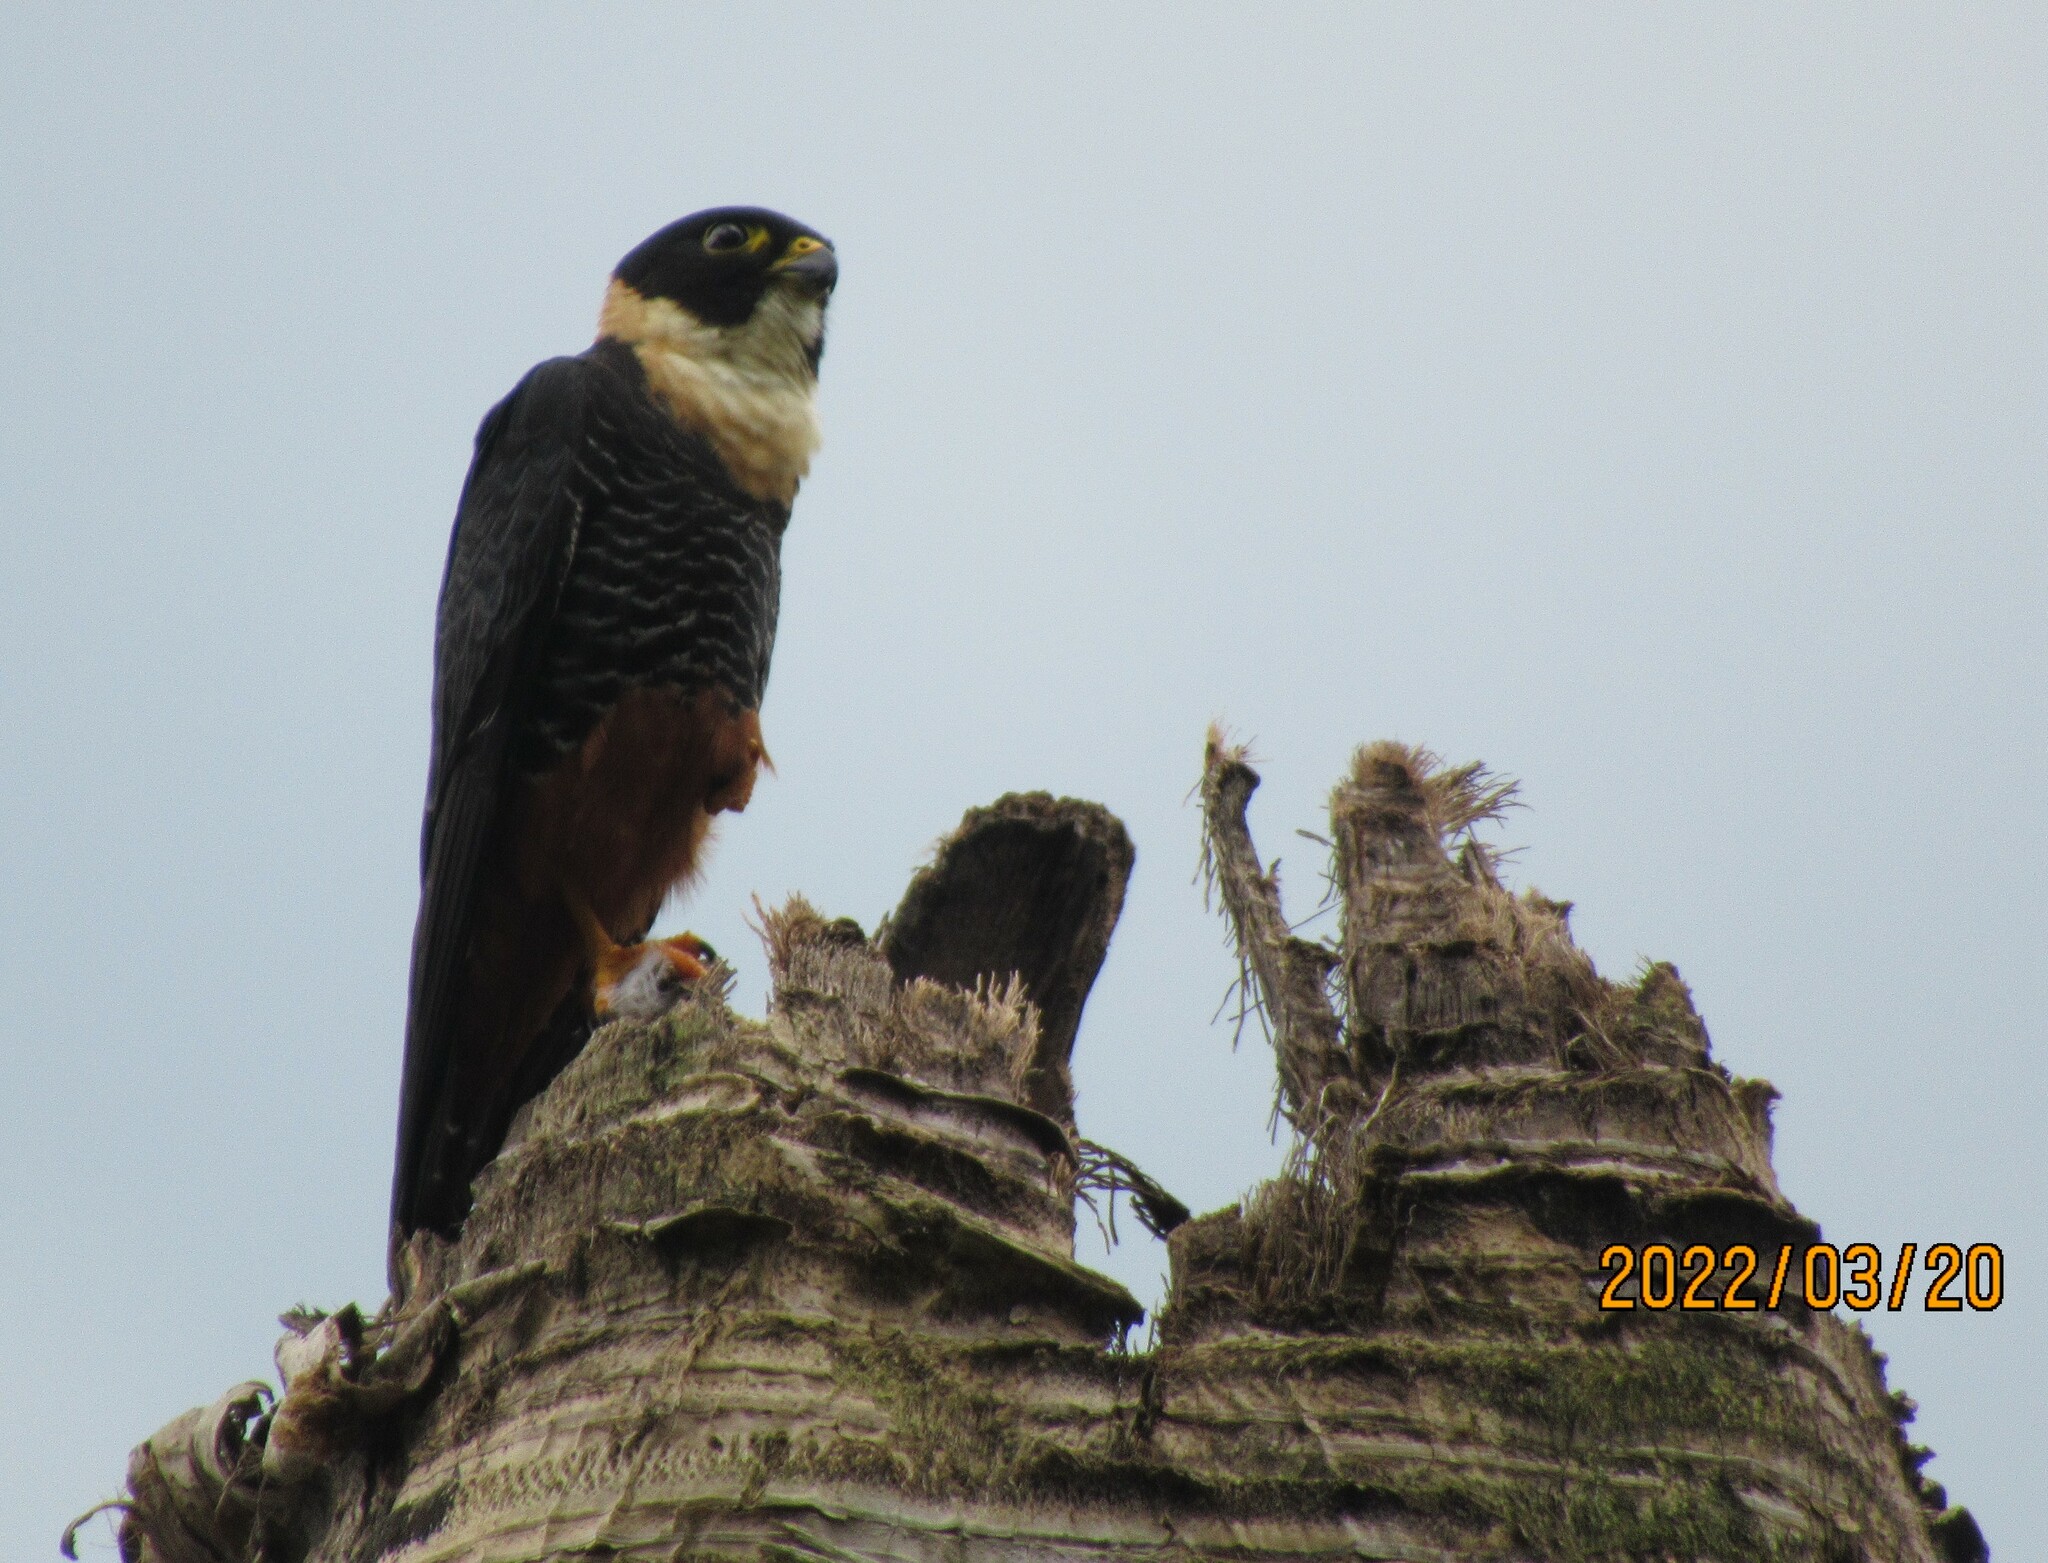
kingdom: Animalia
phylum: Chordata
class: Aves
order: Falconiformes
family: Falconidae
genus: Falco
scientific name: Falco rufigularis
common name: Bat falcon
